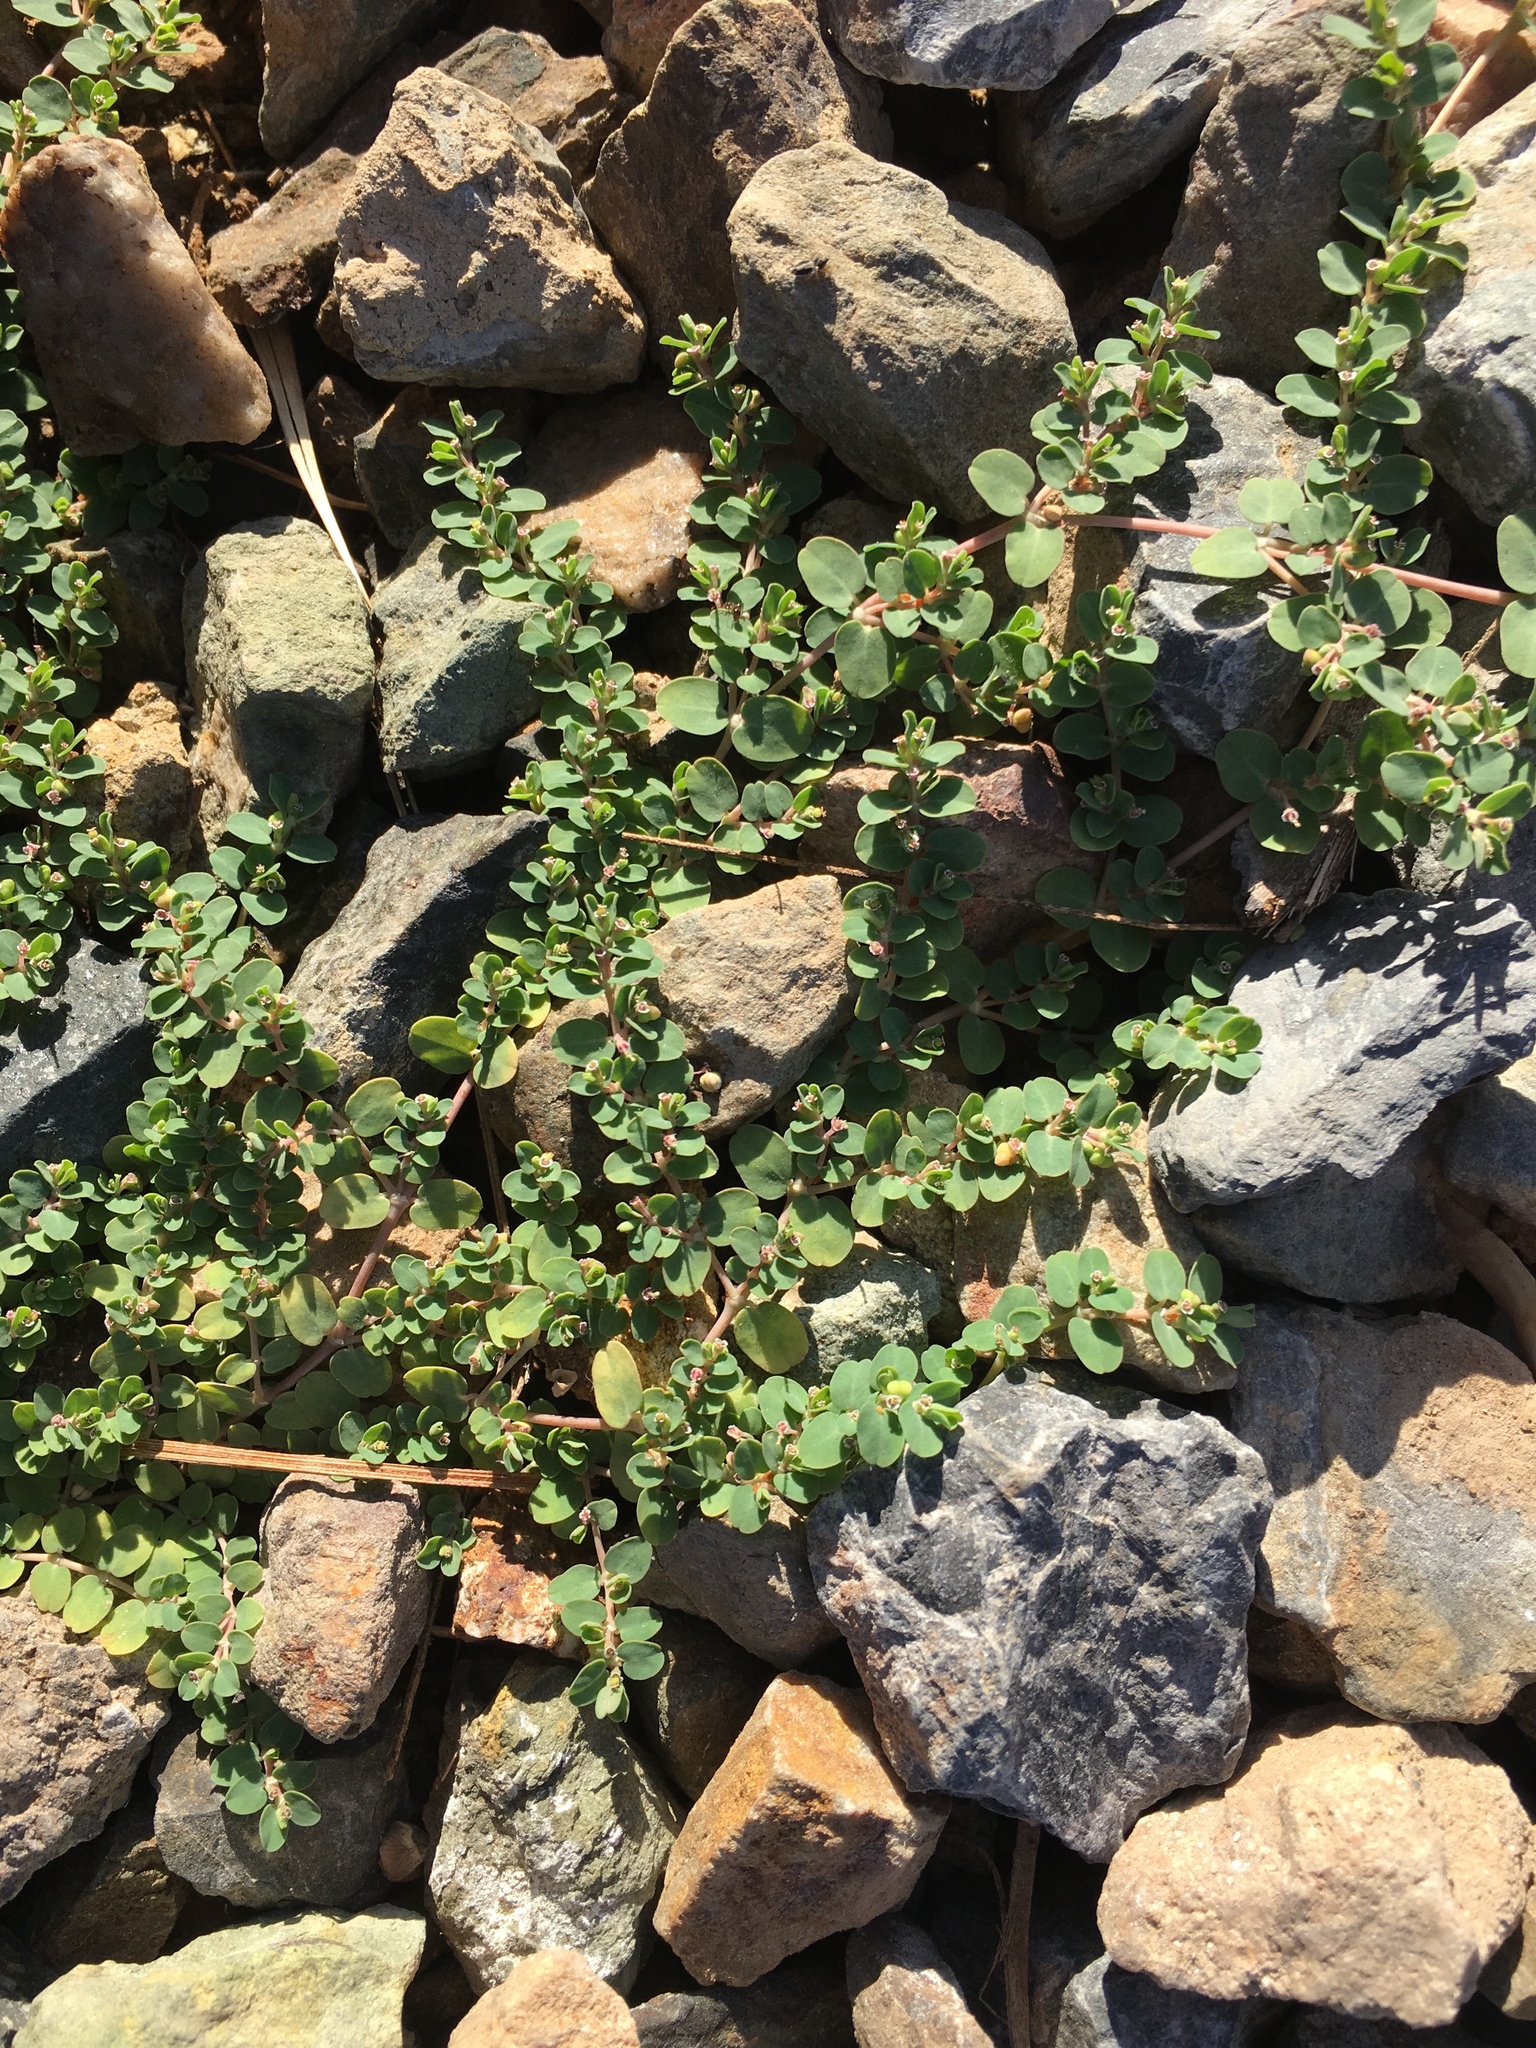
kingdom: Plantae
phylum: Tracheophyta
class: Magnoliopsida
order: Malpighiales
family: Euphorbiaceae
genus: Euphorbia
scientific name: Euphorbia serpens
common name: Matted sandmat
